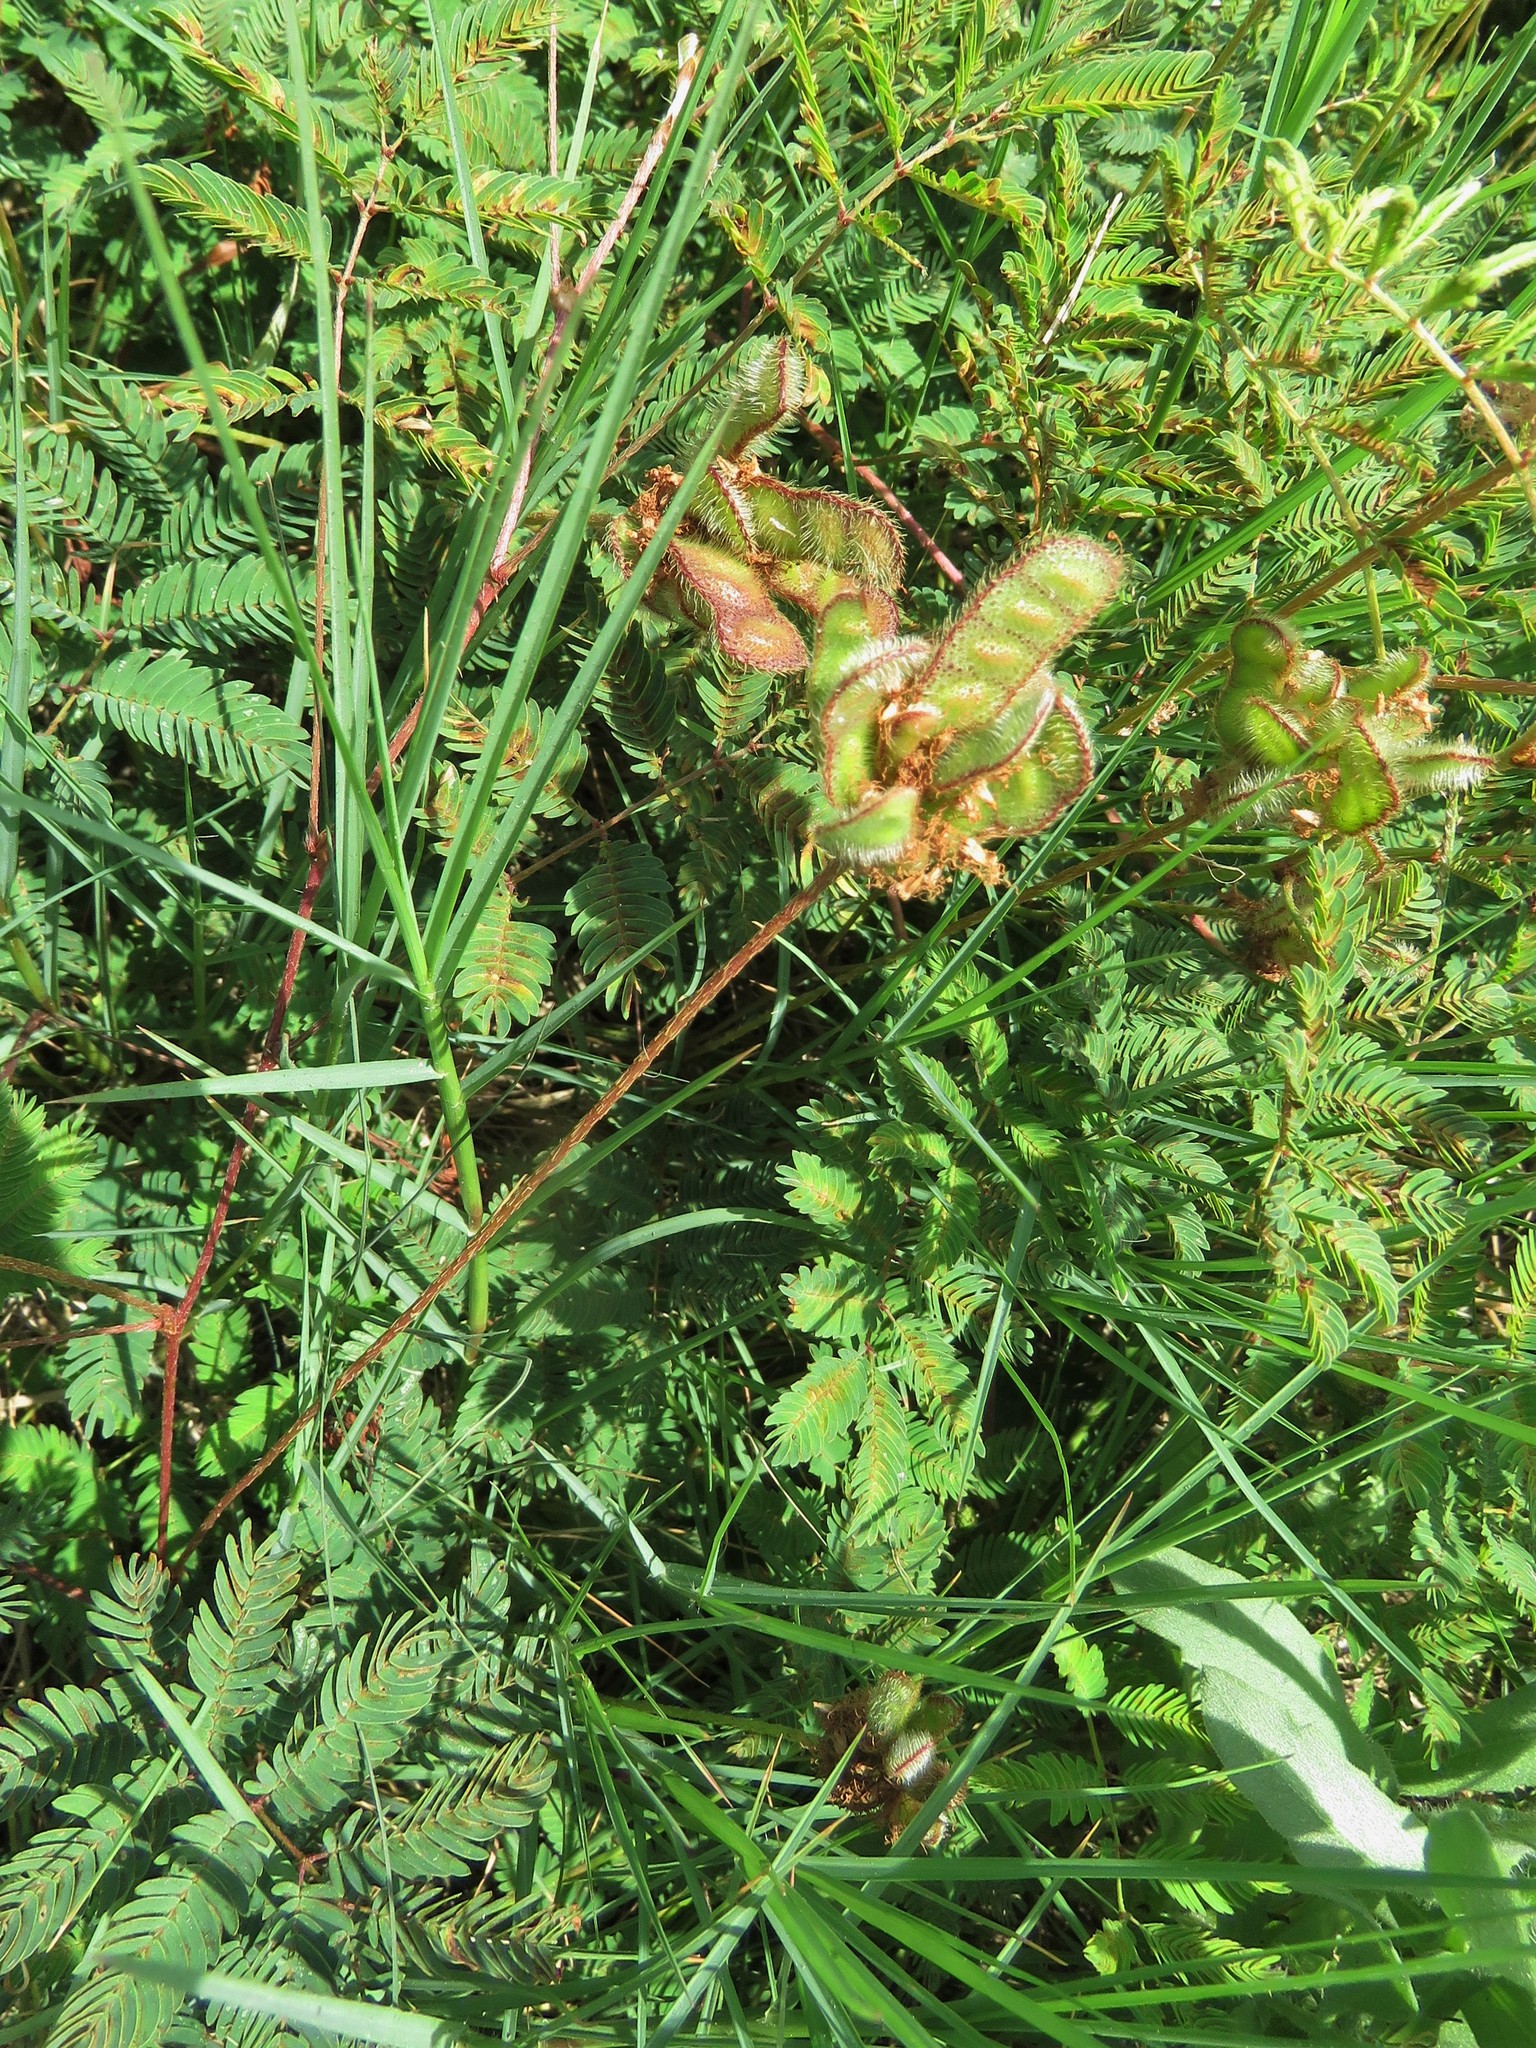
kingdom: Plantae
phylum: Tracheophyta
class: Magnoliopsida
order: Fabales
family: Fabaceae
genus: Mimosa
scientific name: Mimosa strigillosa
